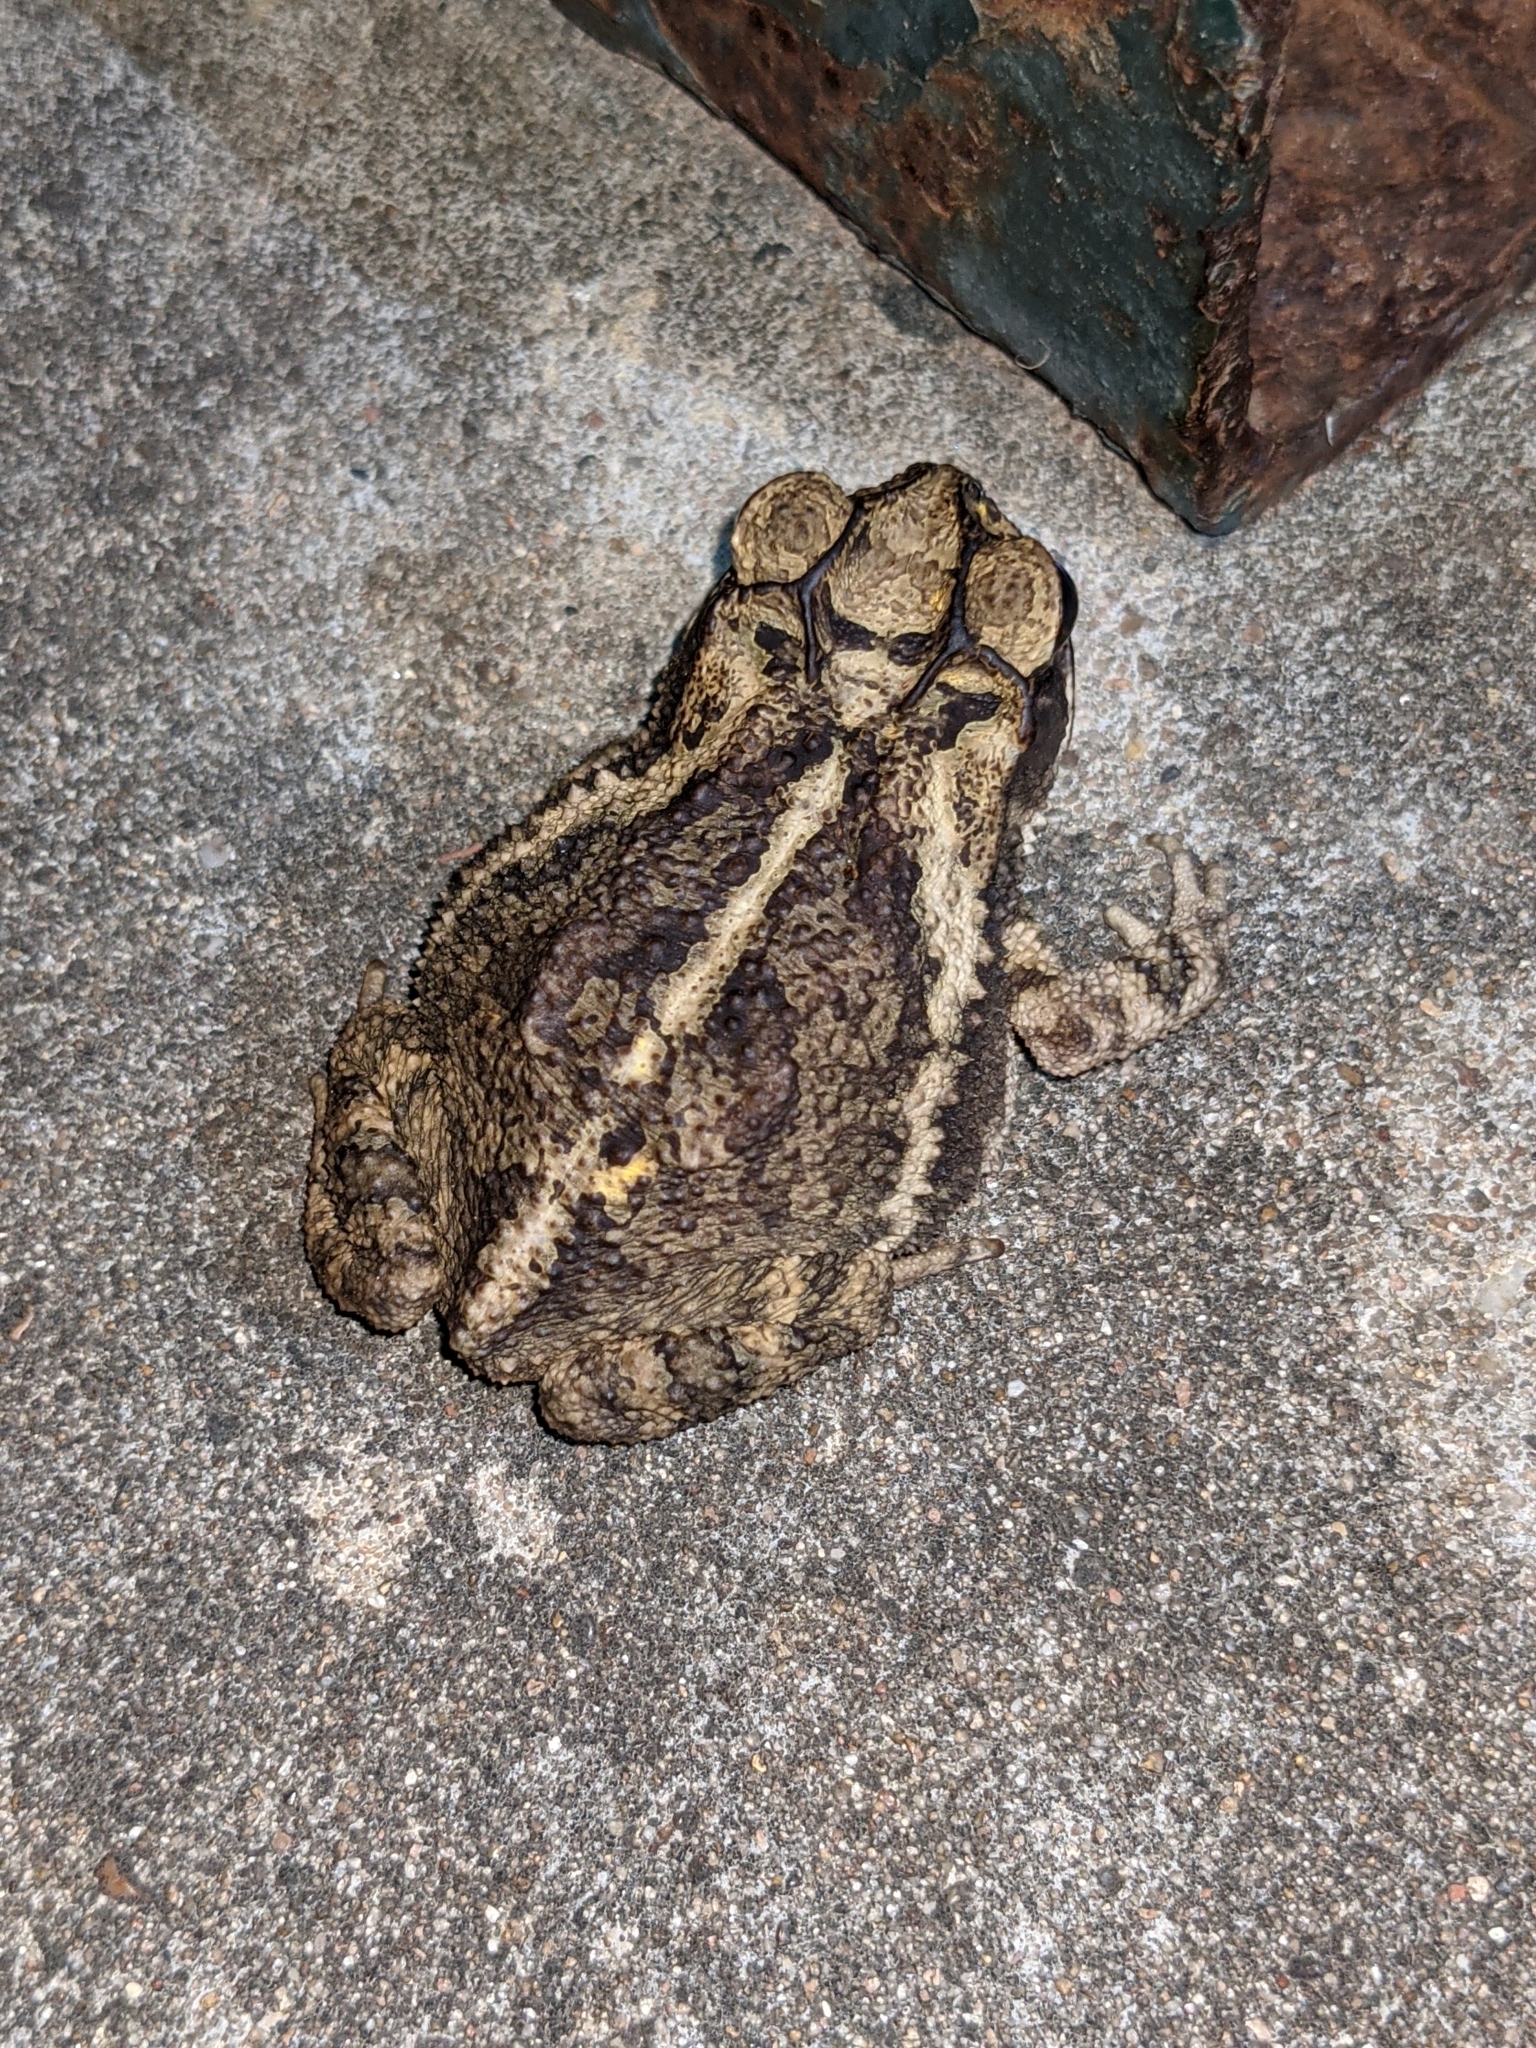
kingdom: Animalia
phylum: Chordata
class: Amphibia
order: Anura
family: Bufonidae
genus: Incilius
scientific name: Incilius nebulifer
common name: Gulf coast toad
